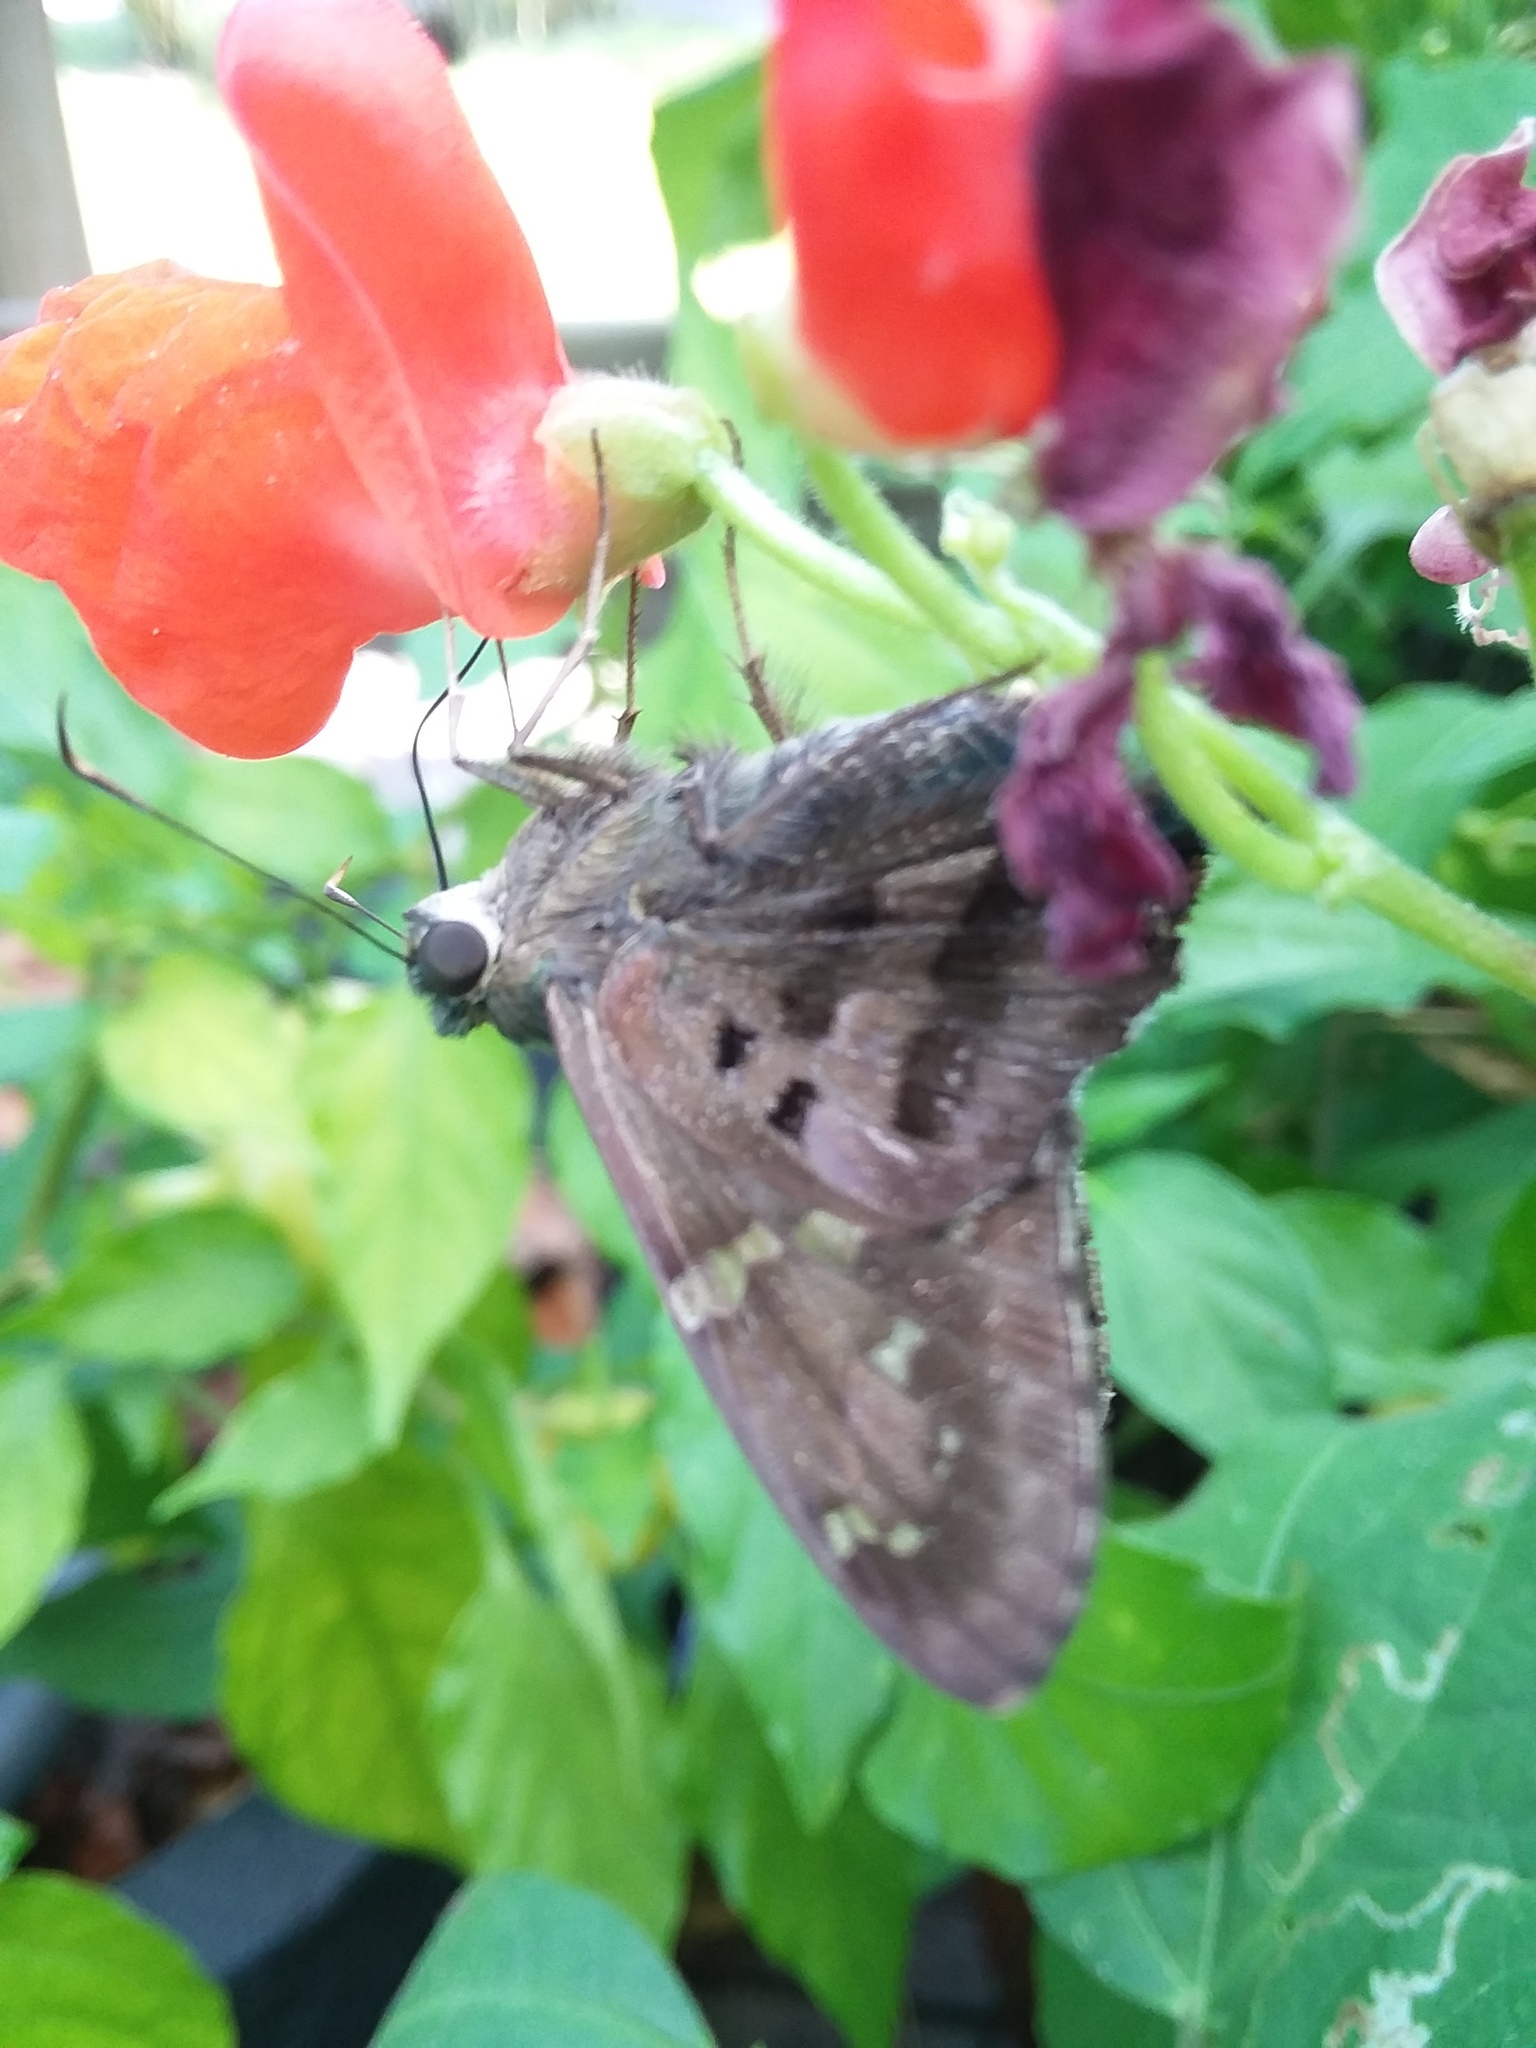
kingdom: Animalia
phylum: Arthropoda
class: Insecta
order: Lepidoptera
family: Hesperiidae
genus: Urbanus
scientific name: Urbanus proteus
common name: Long-tailed skipper
